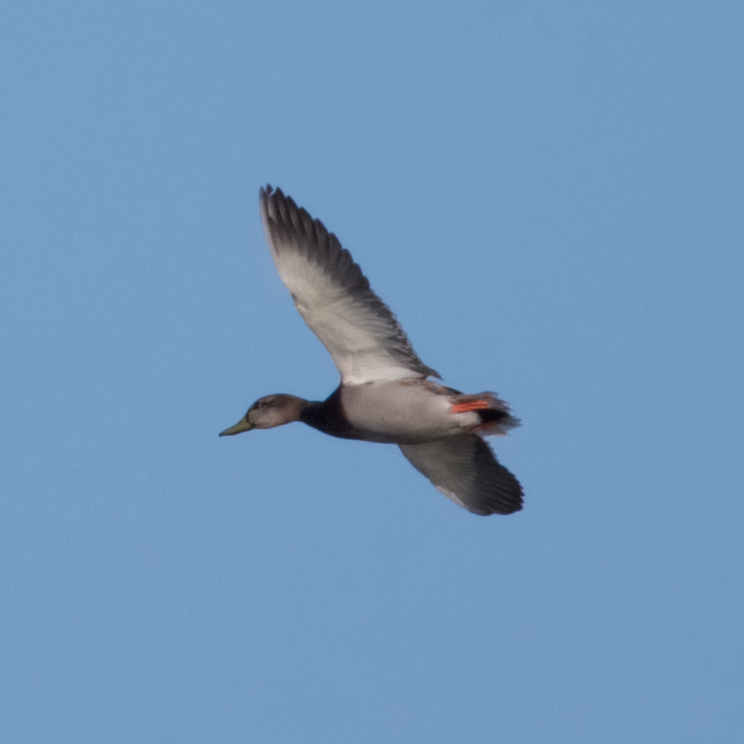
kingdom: Animalia
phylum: Chordata
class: Aves
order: Anseriformes
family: Anatidae
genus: Anas
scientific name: Anas platyrhynchos
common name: Mallard
